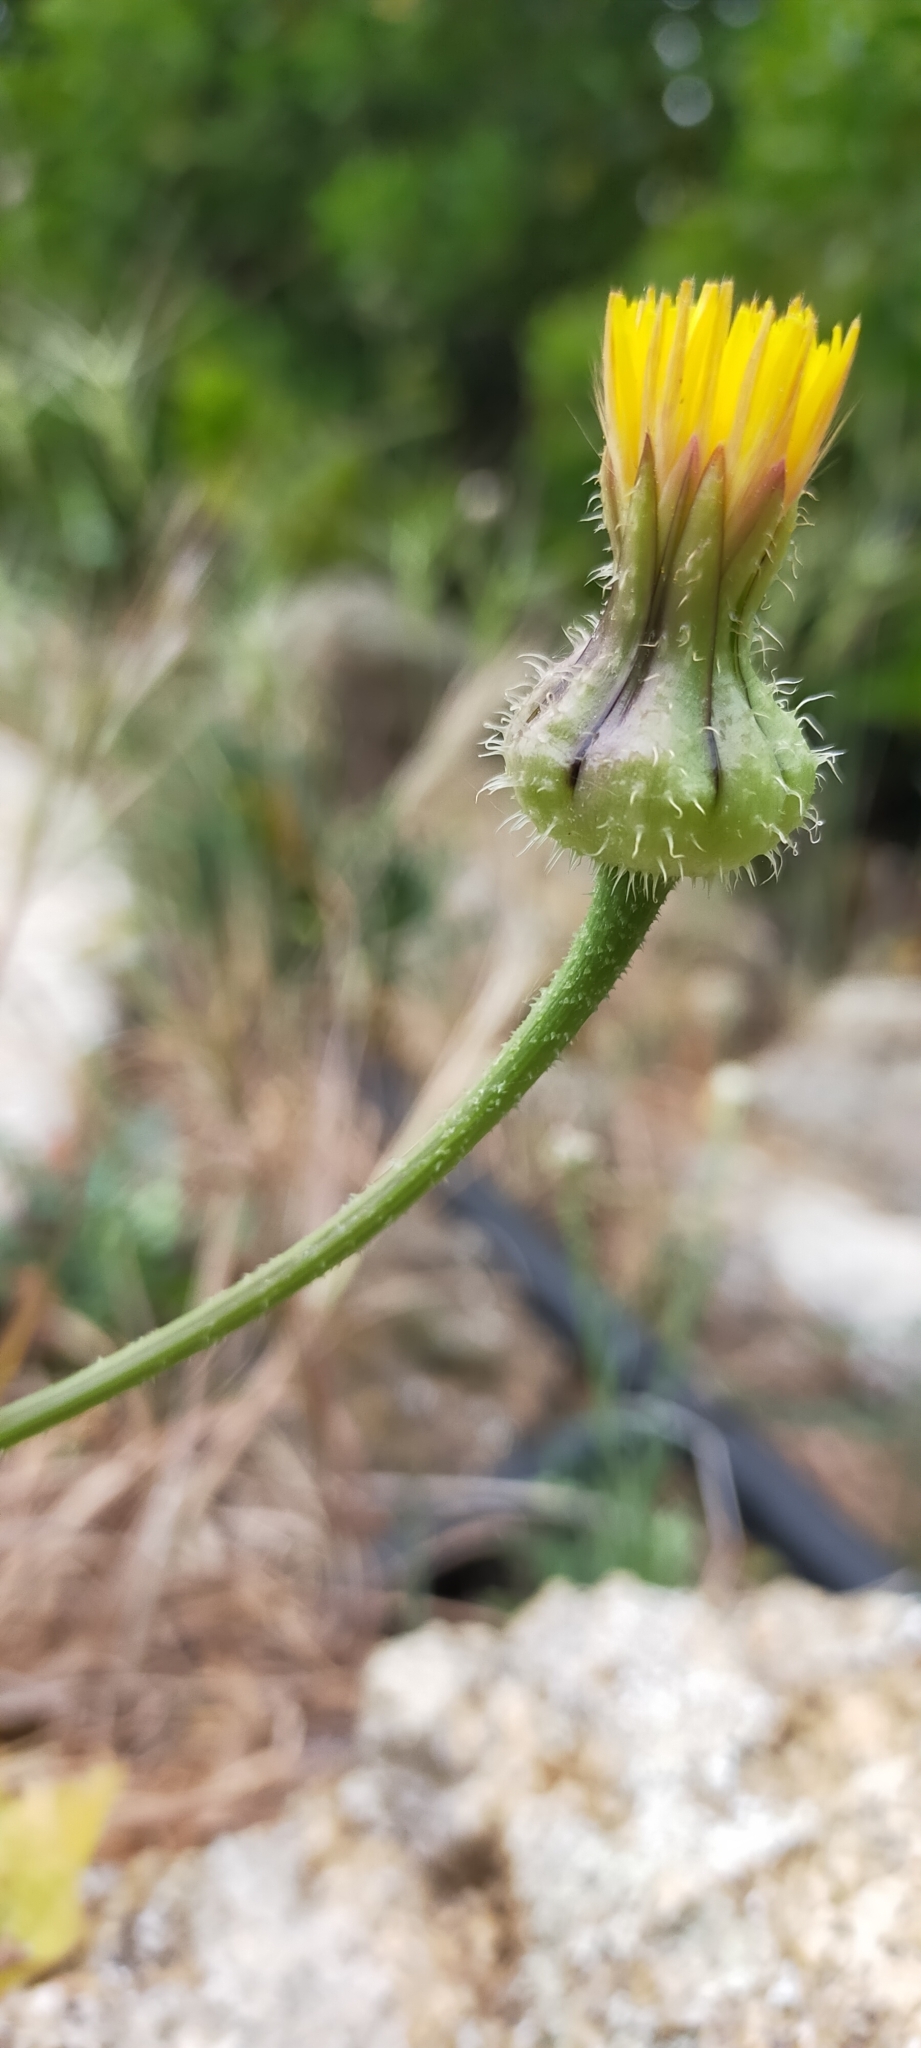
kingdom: Plantae
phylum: Tracheophyta
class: Magnoliopsida
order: Asterales
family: Asteraceae
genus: Urospermum
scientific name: Urospermum picroides
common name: False hawkbit
